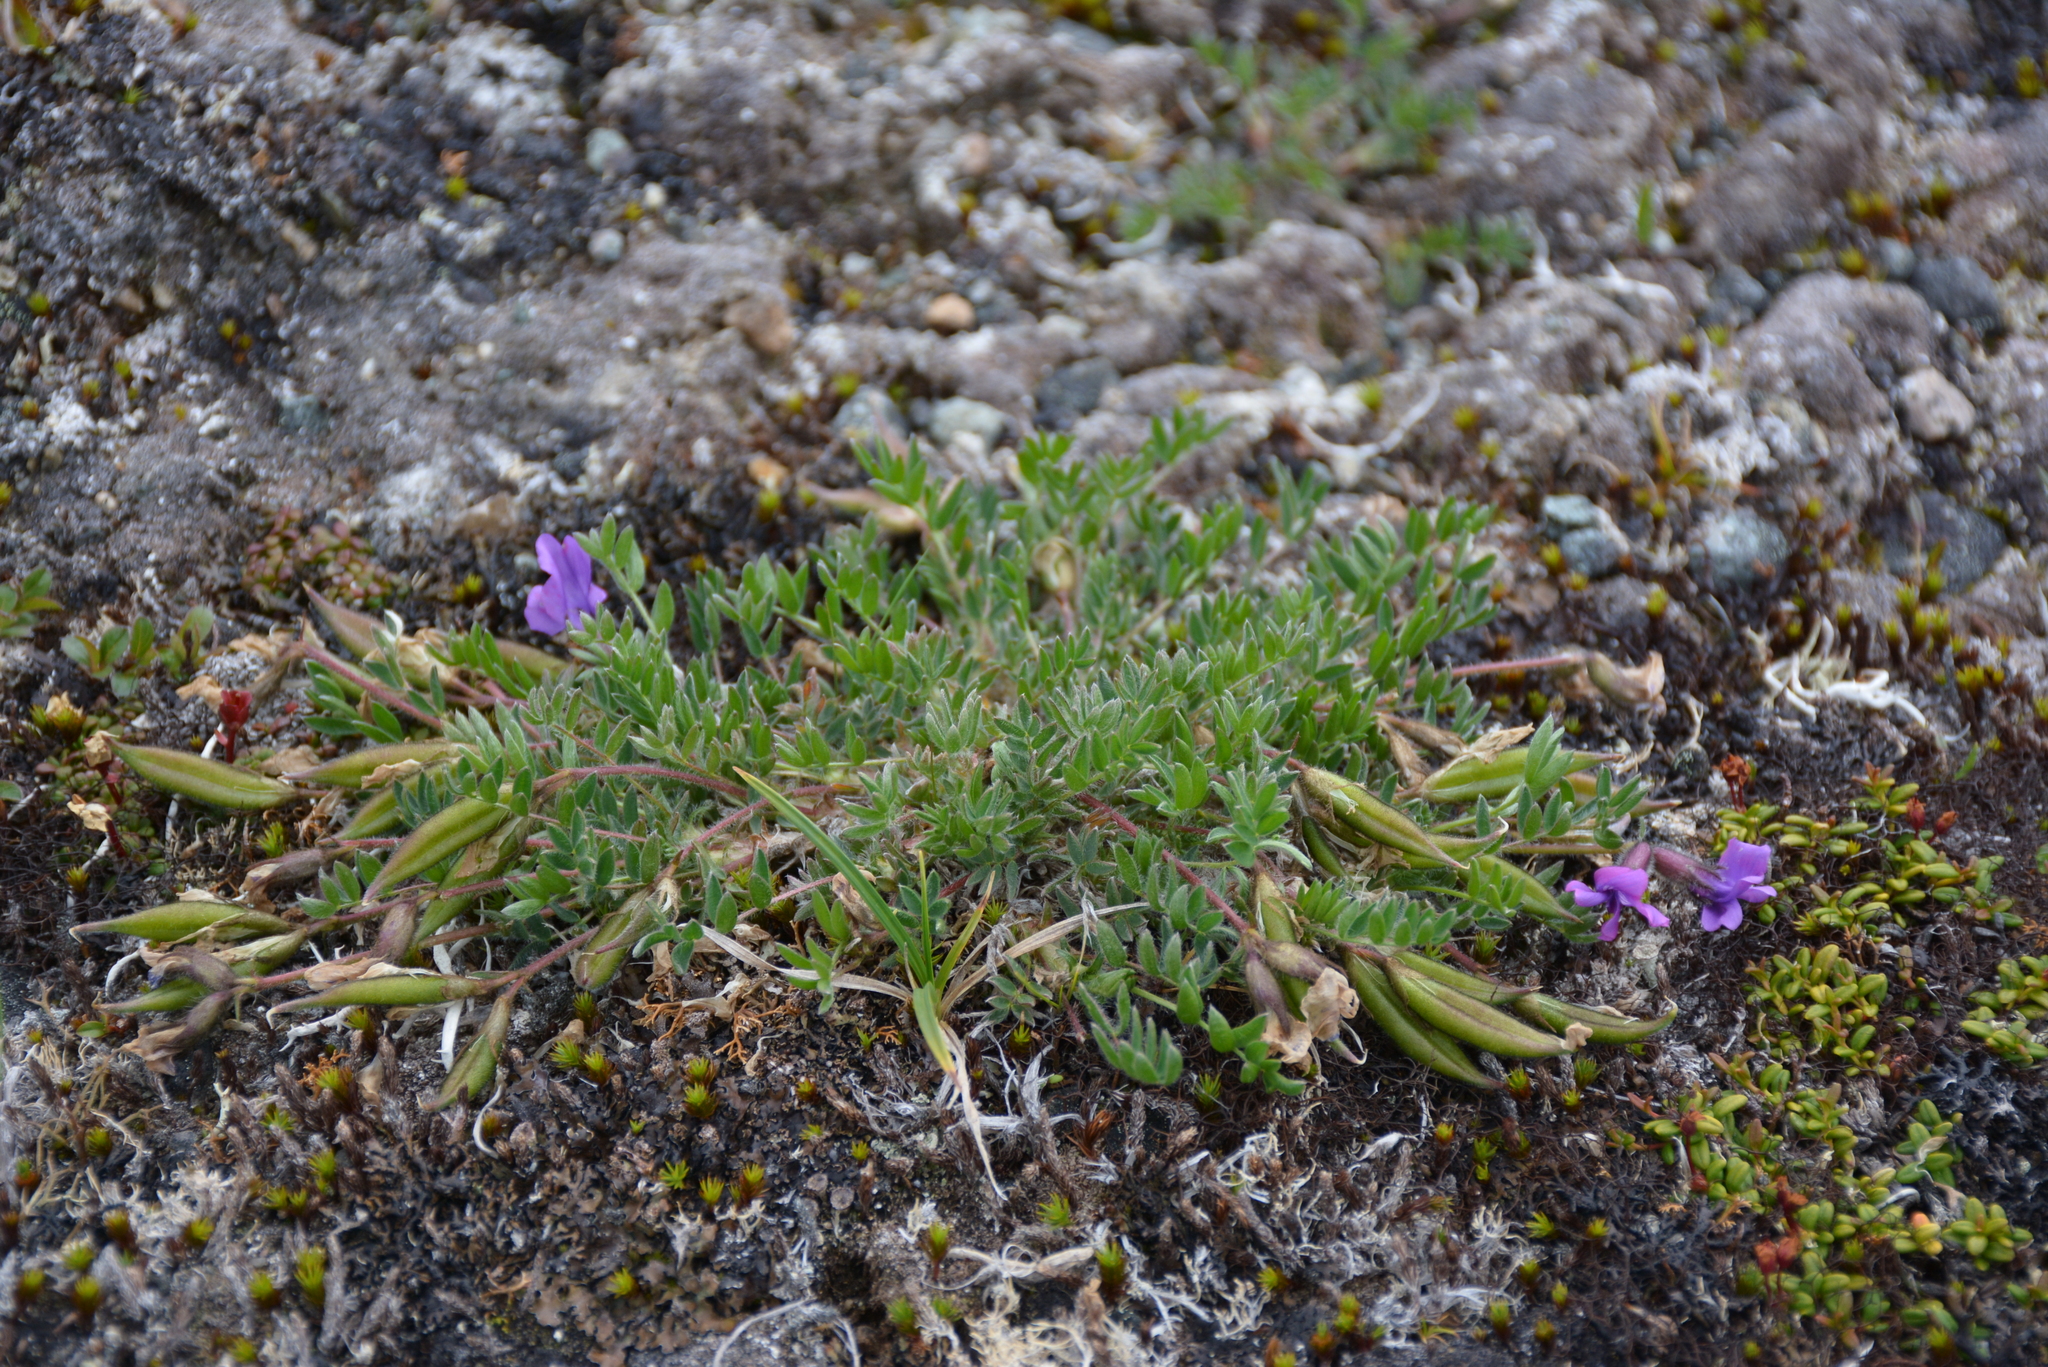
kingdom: Plantae
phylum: Tracheophyta
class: Magnoliopsida
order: Fabales
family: Fabaceae
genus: Oxytropis
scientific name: Oxytropis czukotica
